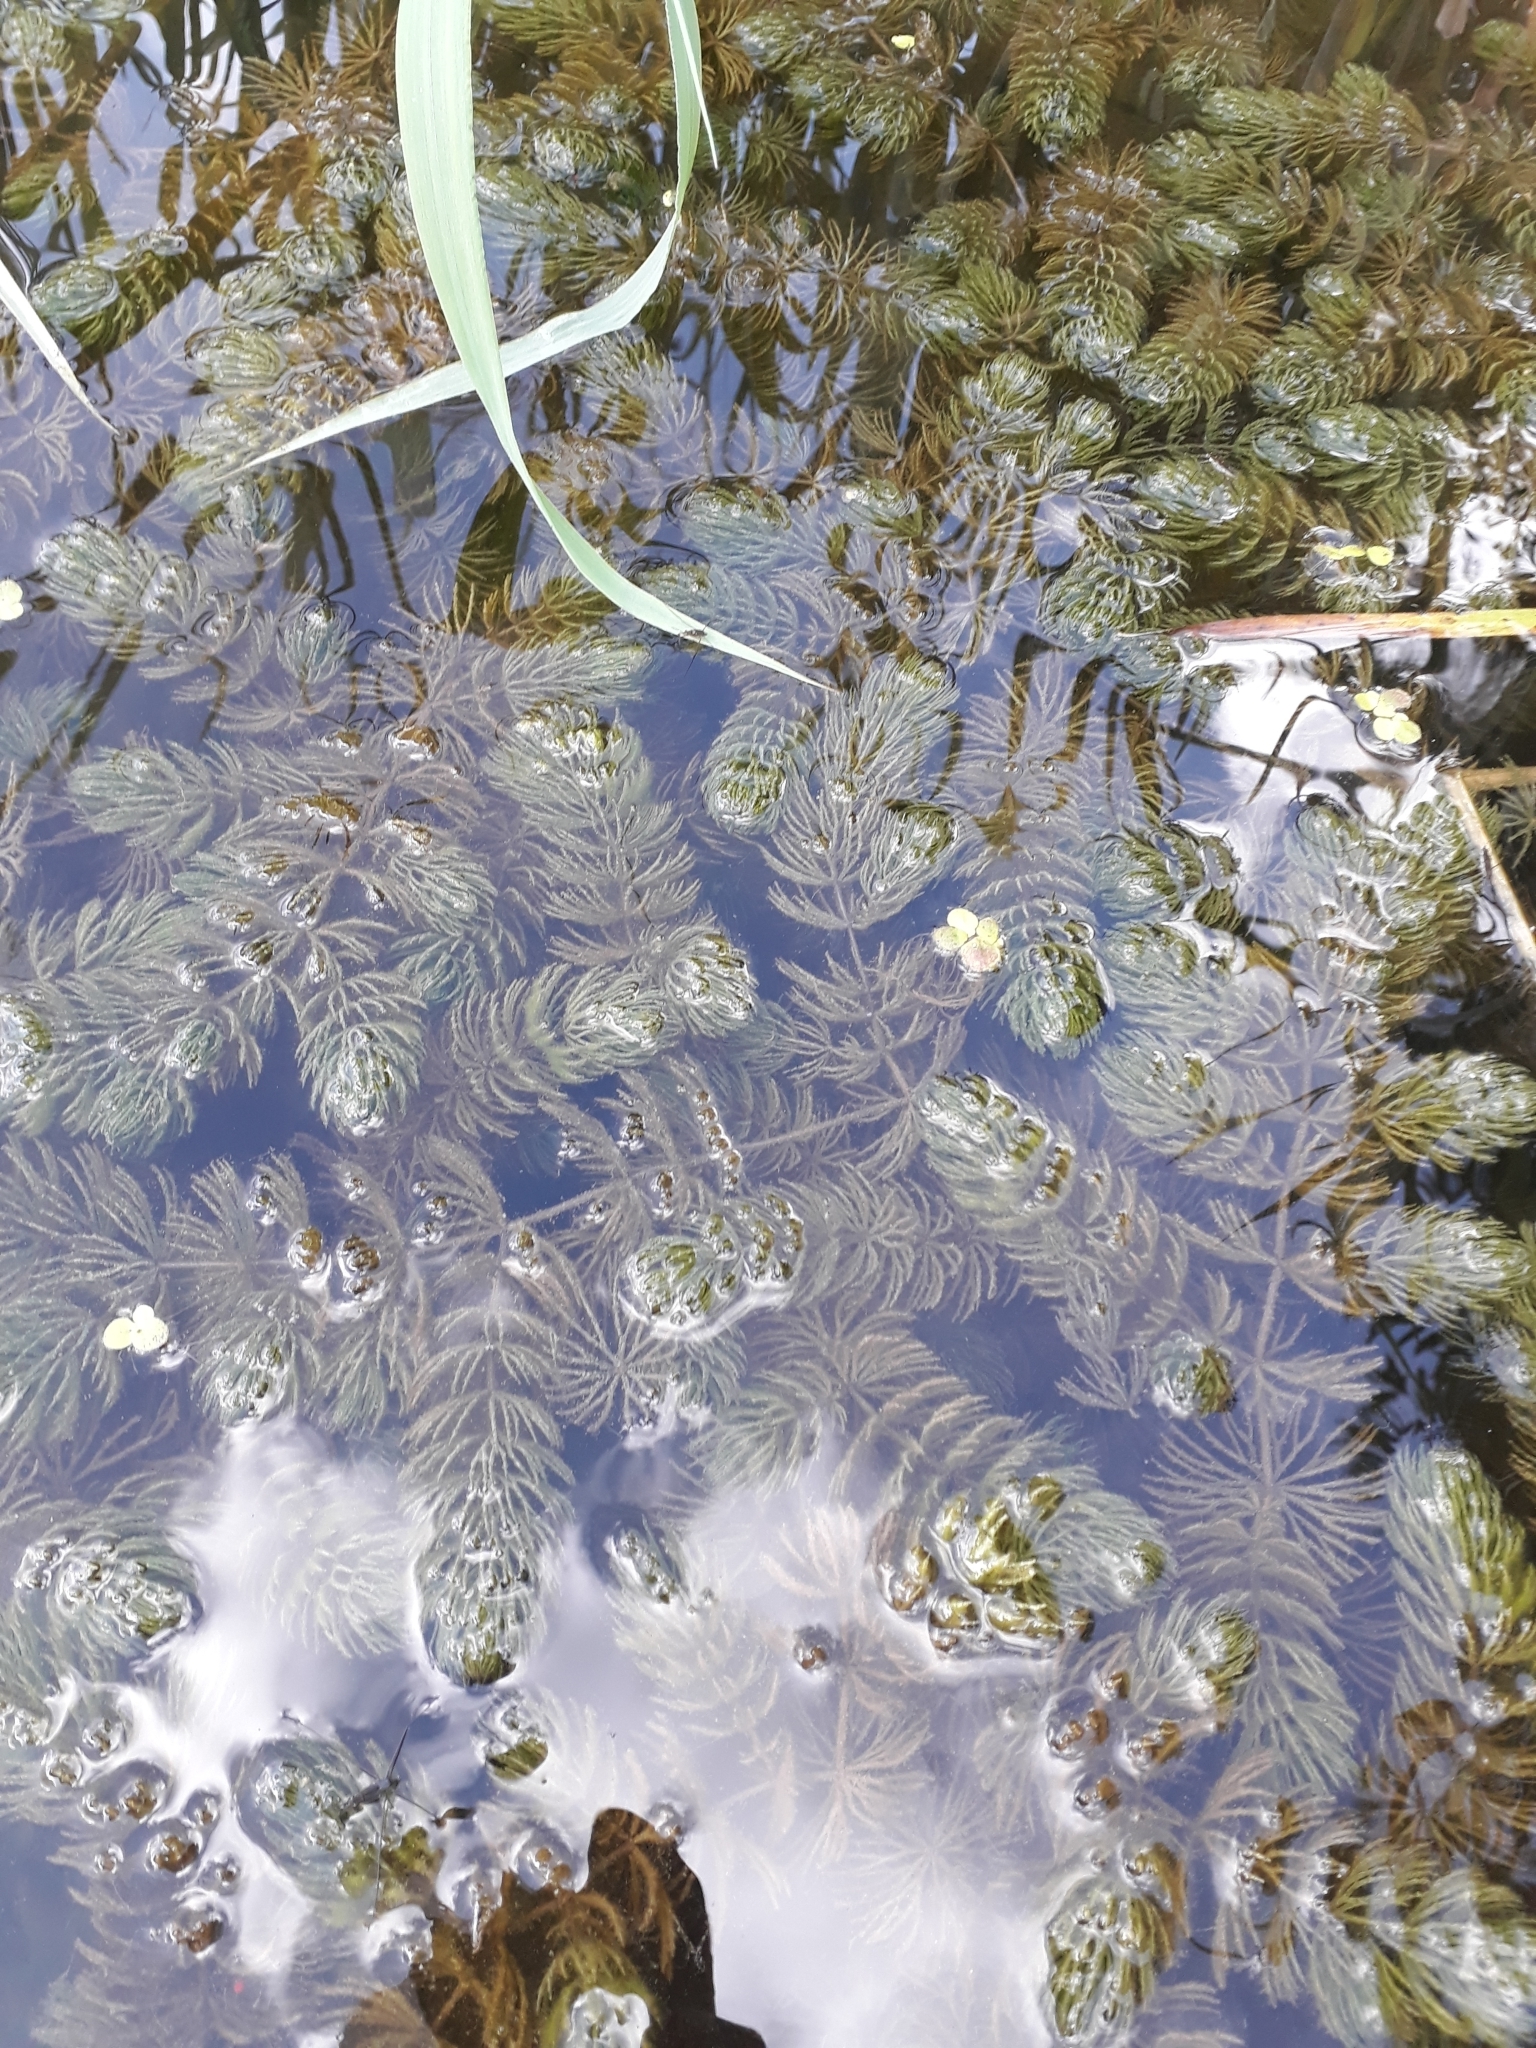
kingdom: Plantae
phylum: Tracheophyta
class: Magnoliopsida
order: Ceratophyllales
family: Ceratophyllaceae
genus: Ceratophyllum
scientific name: Ceratophyllum demersum
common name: Rigid hornwort
